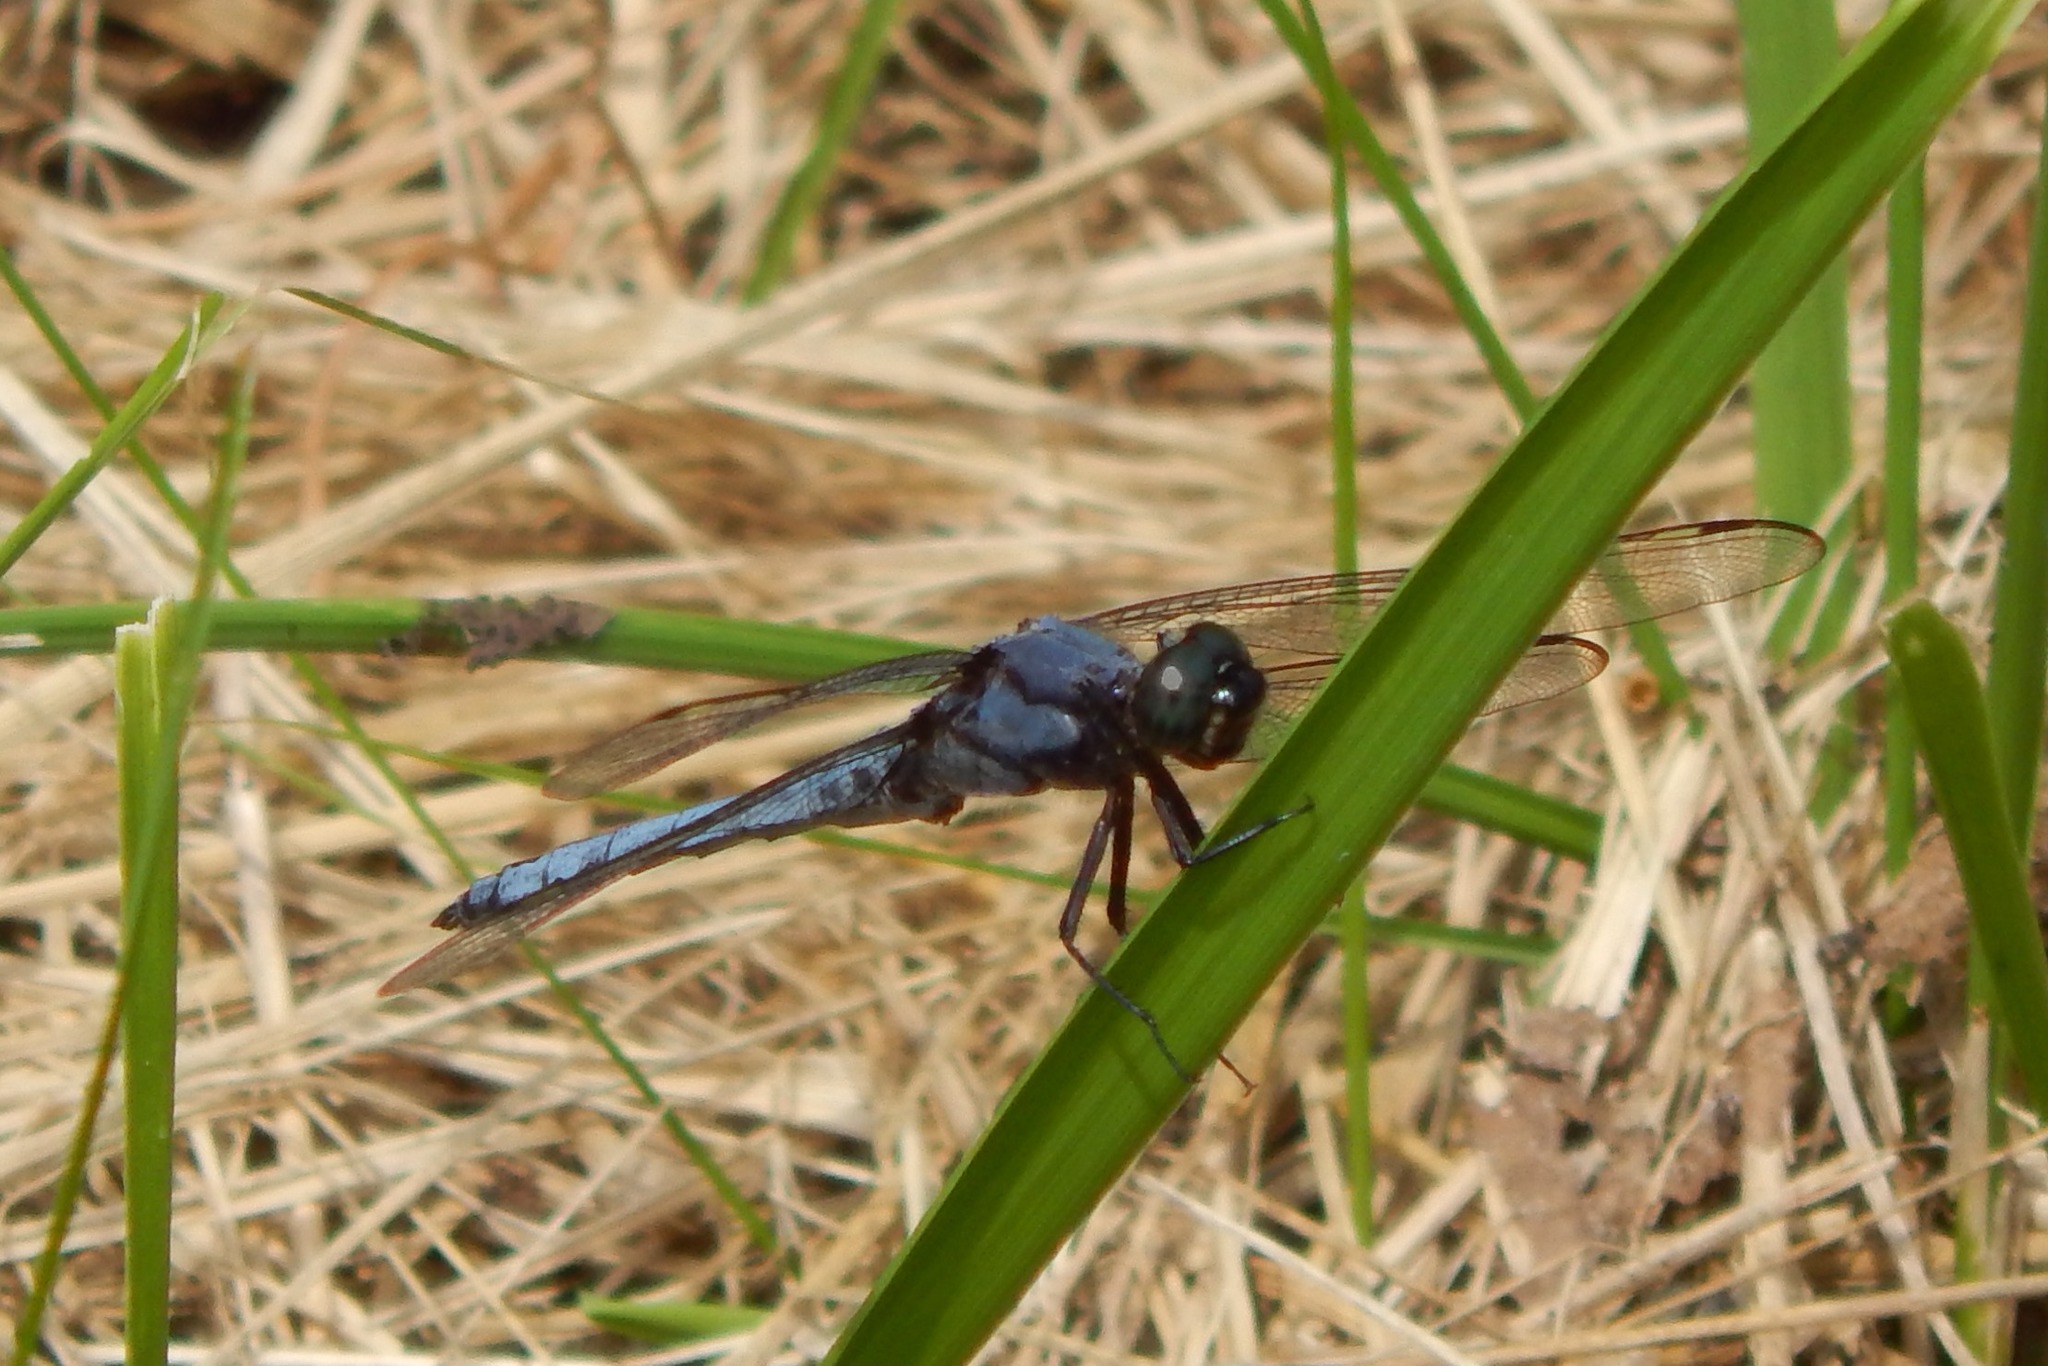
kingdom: Animalia
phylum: Arthropoda
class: Insecta
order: Odonata
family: Libellulidae
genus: Libellula
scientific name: Libellula cyanea
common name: Spangled skimmer
